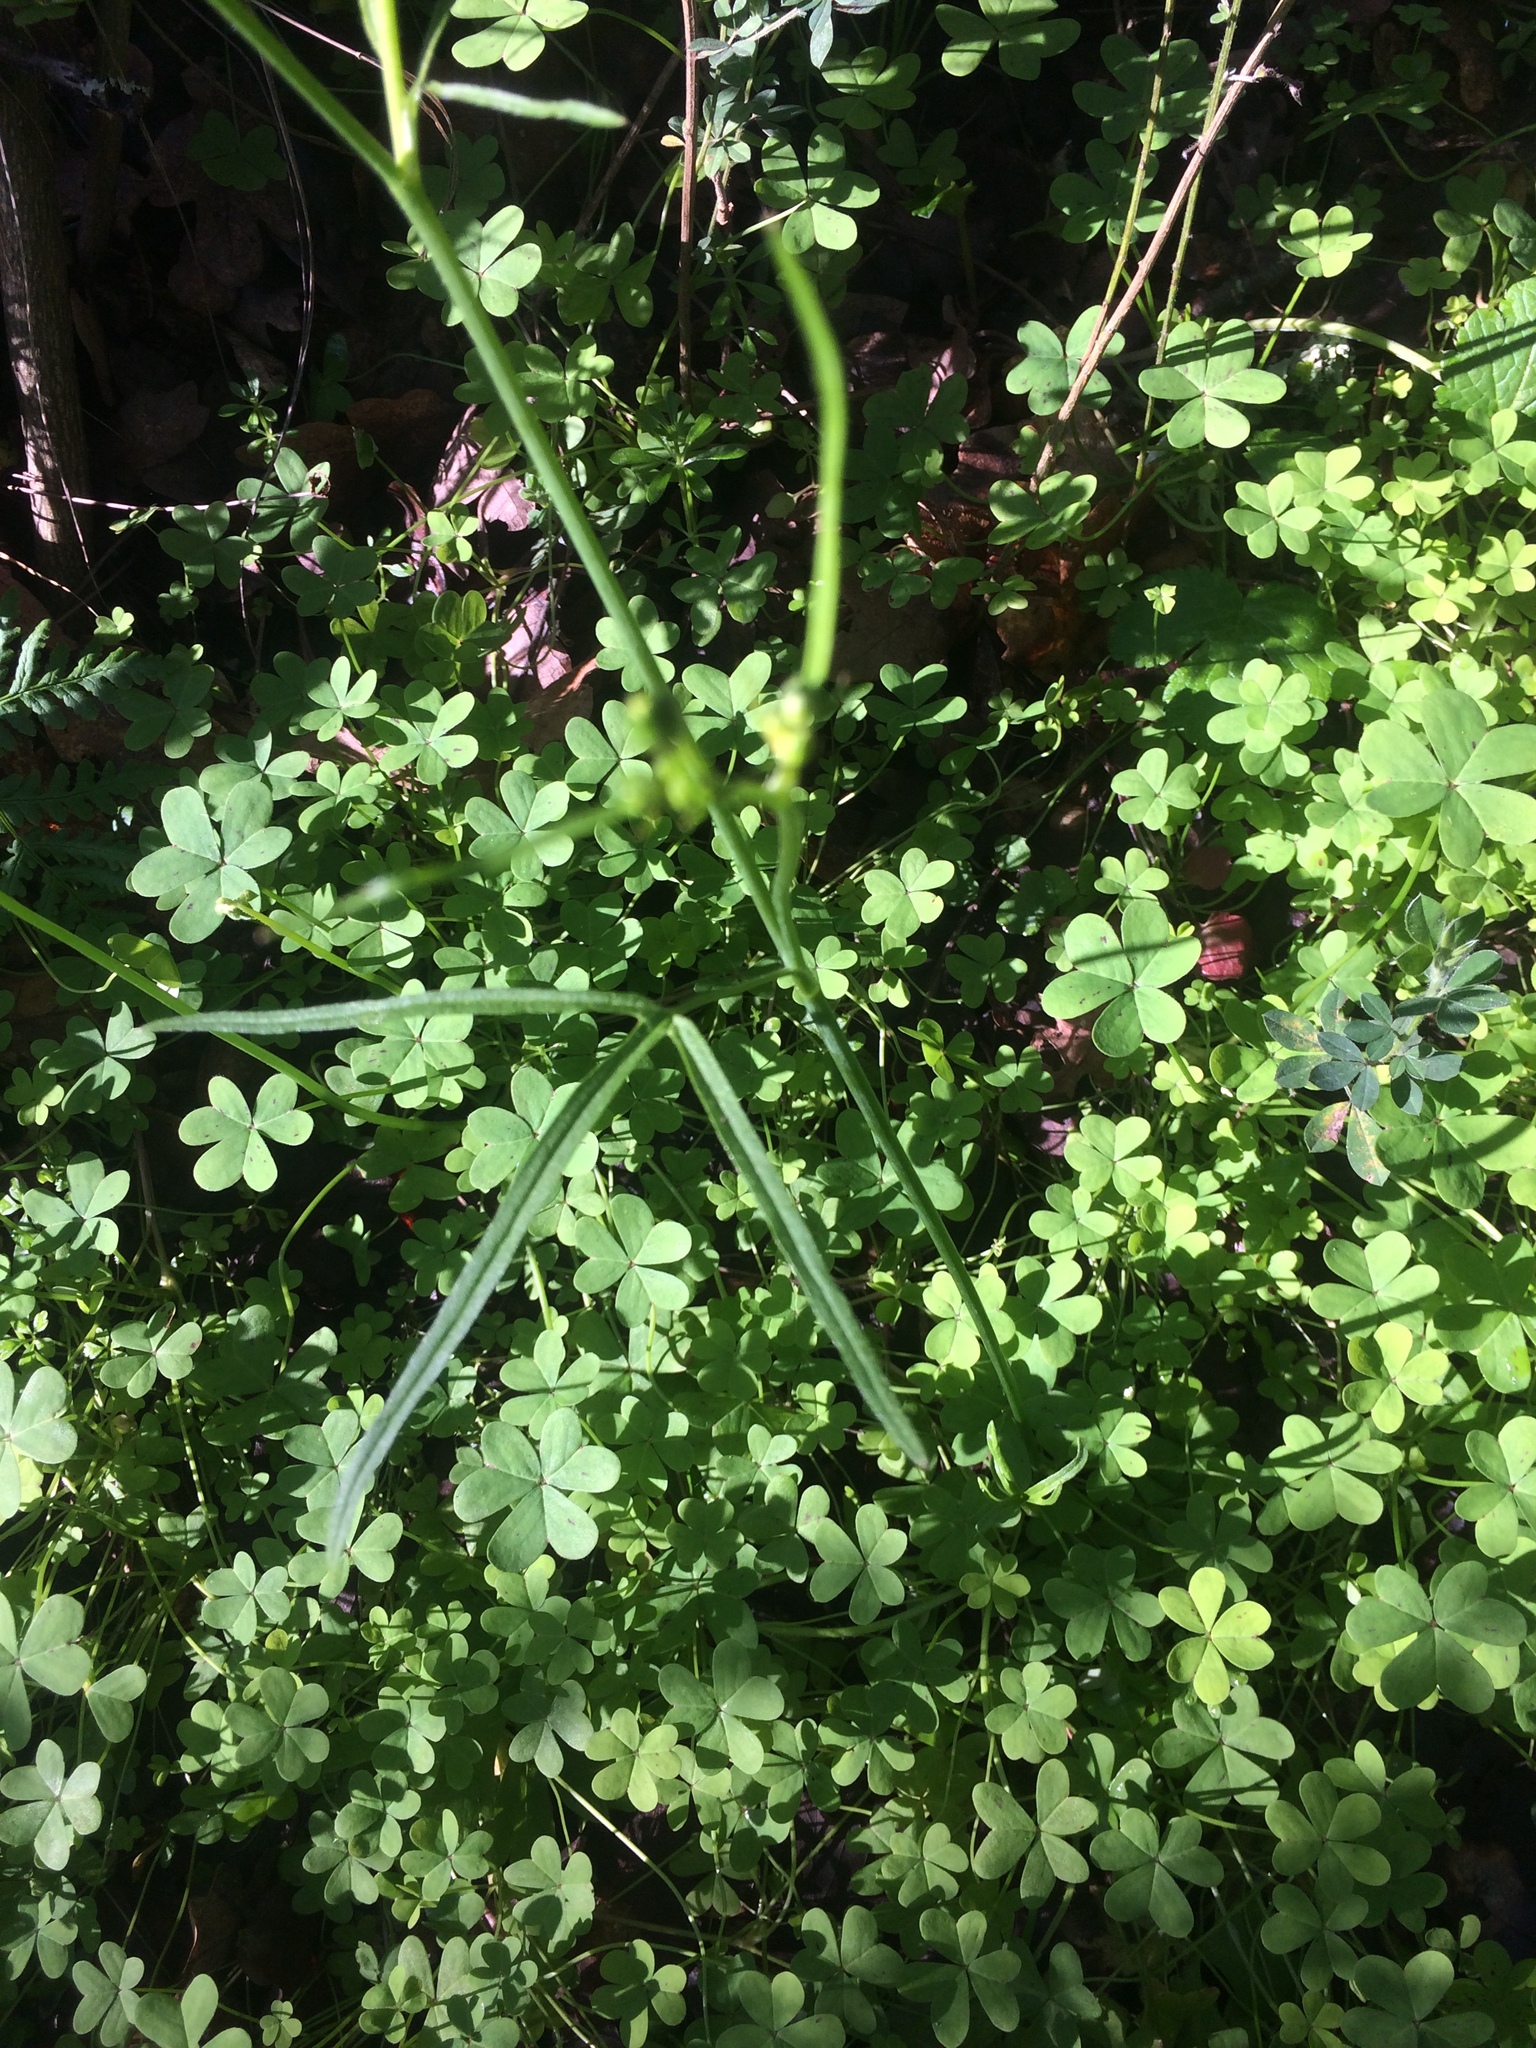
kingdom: Plantae
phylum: Tracheophyta
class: Magnoliopsida
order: Ranunculales
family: Ranunculaceae
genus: Ranunculus
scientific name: Ranunculus californicus
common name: California buttercup
